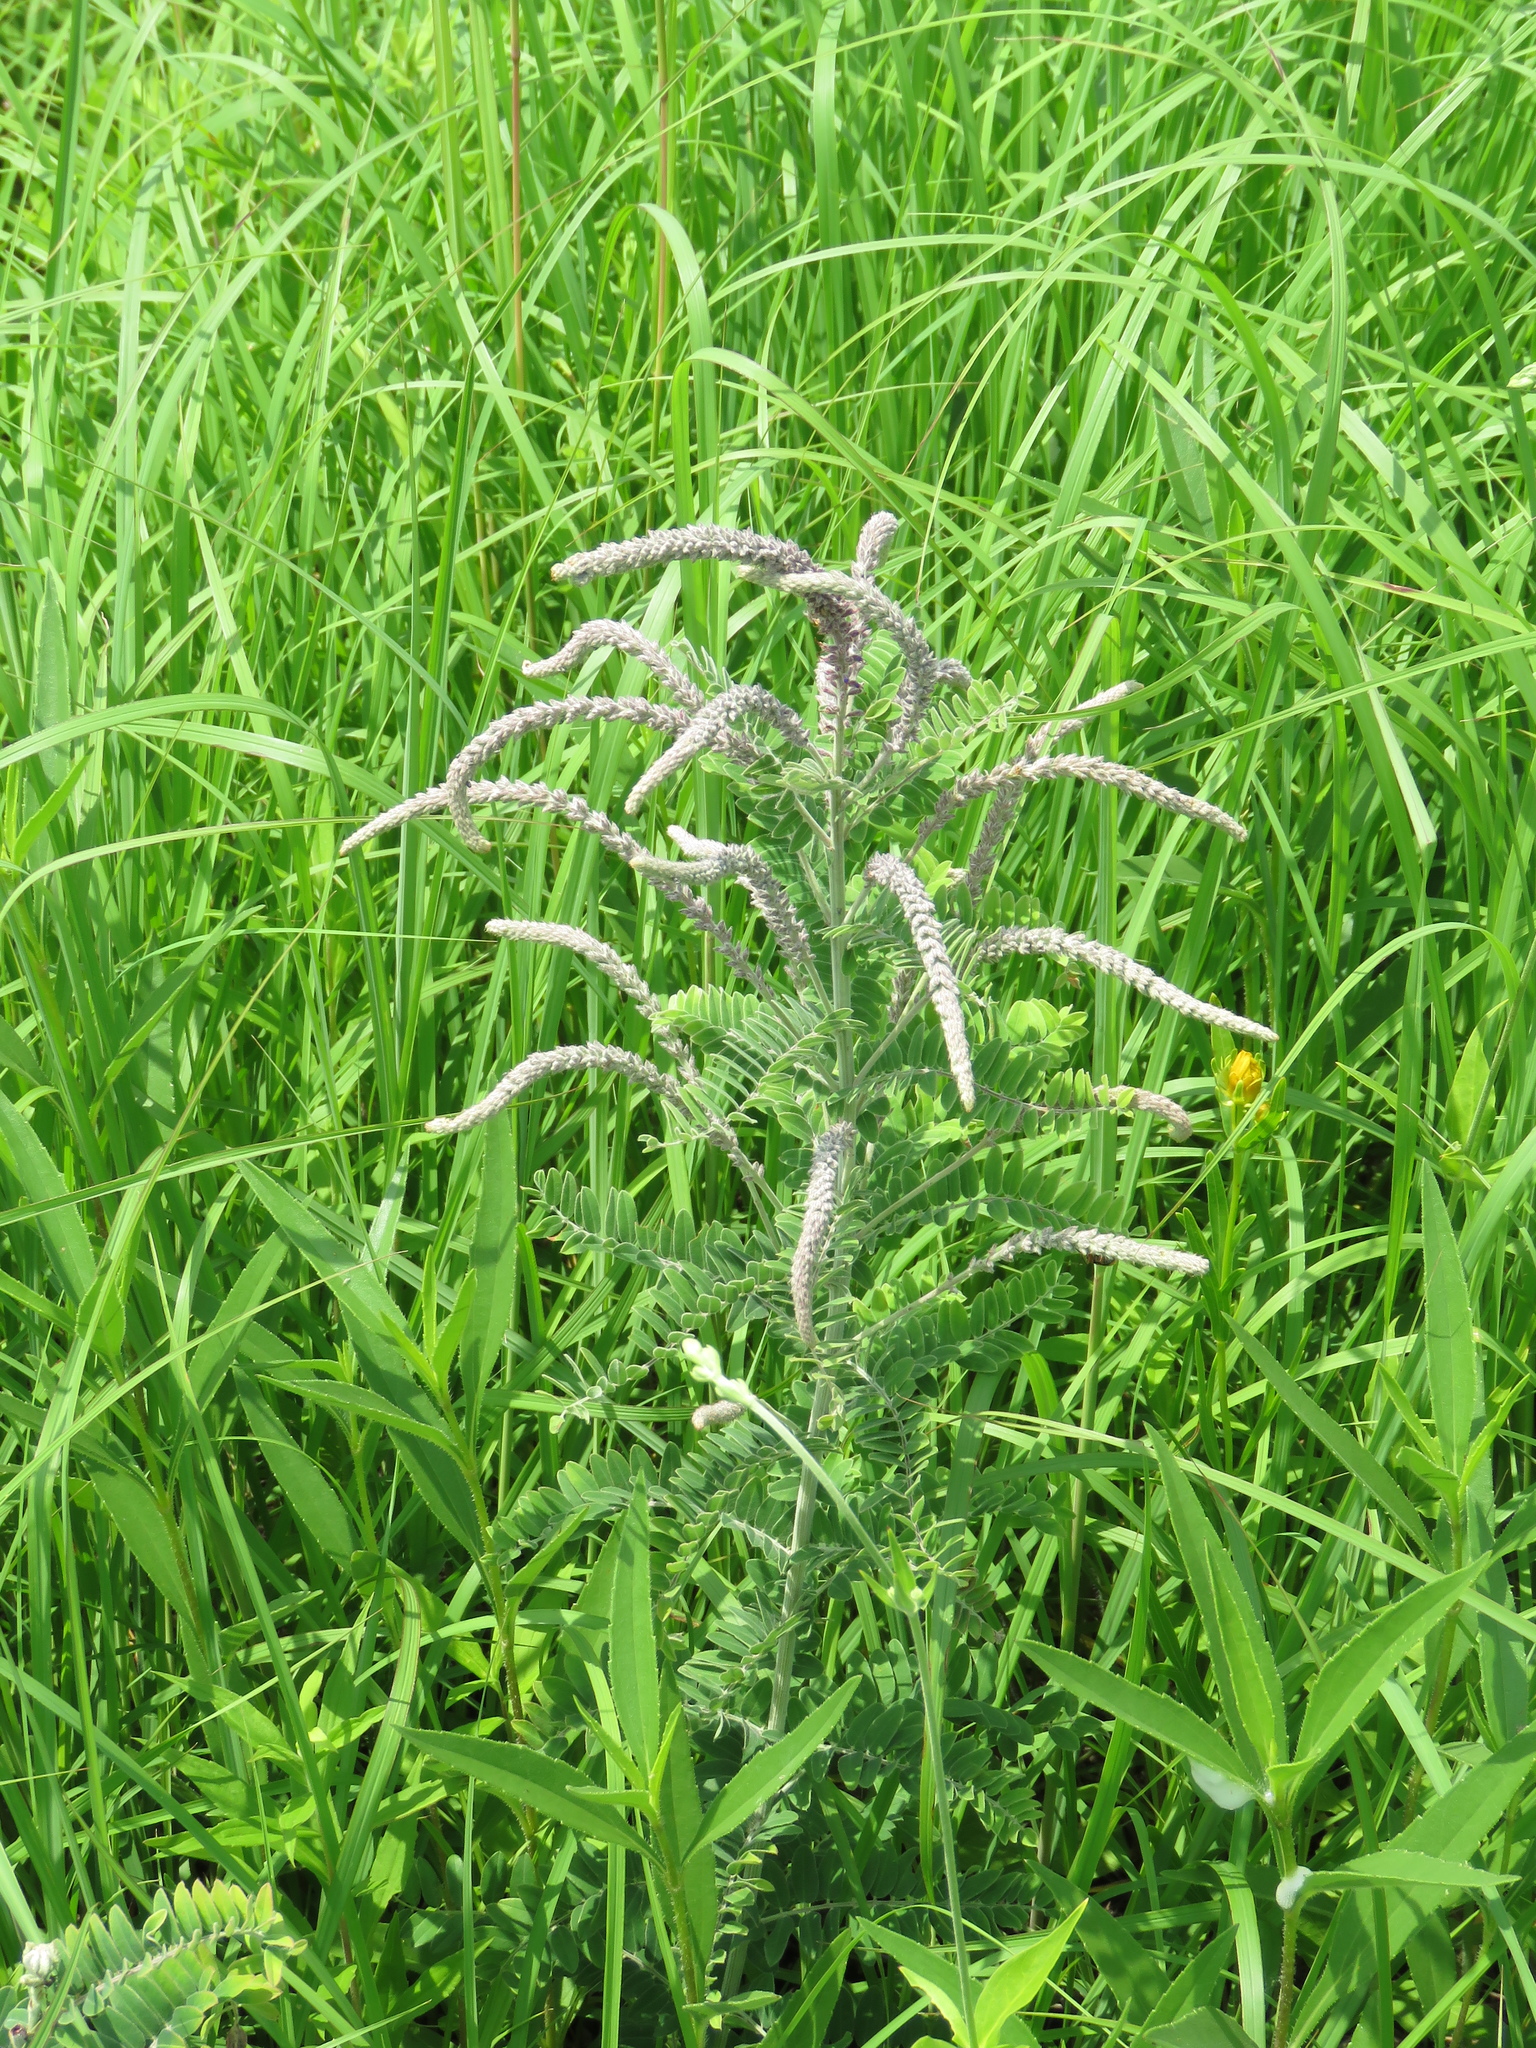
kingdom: Plantae
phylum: Tracheophyta
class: Magnoliopsida
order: Fabales
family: Fabaceae
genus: Amorpha
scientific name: Amorpha canescens
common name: Leadplant
